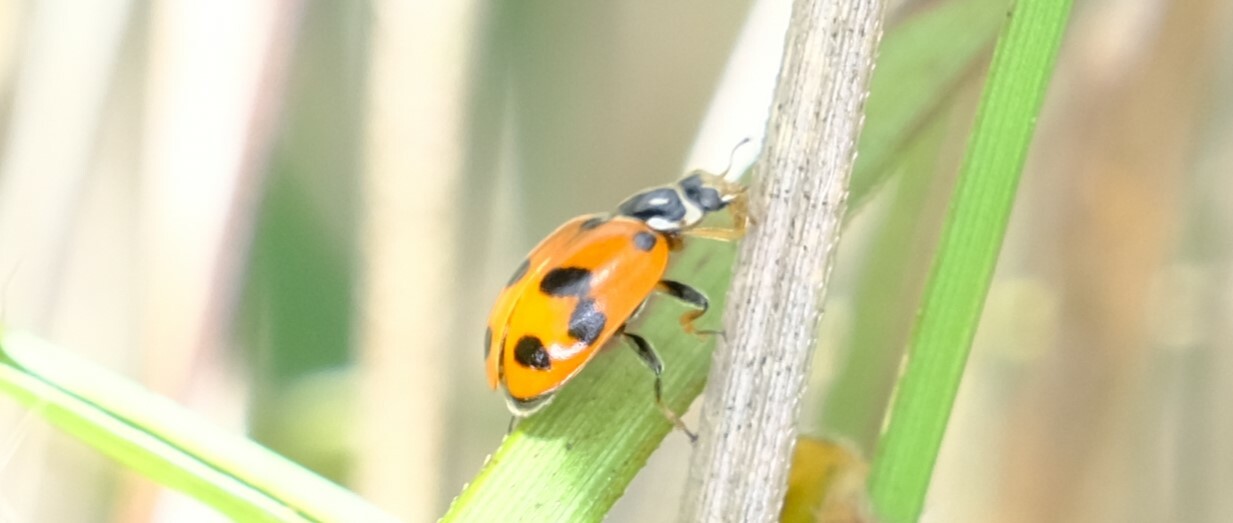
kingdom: Animalia
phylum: Arthropoda
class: Insecta
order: Coleoptera
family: Coccinellidae
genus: Hippodamia
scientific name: Hippodamia variegata
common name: Ladybird beetle
